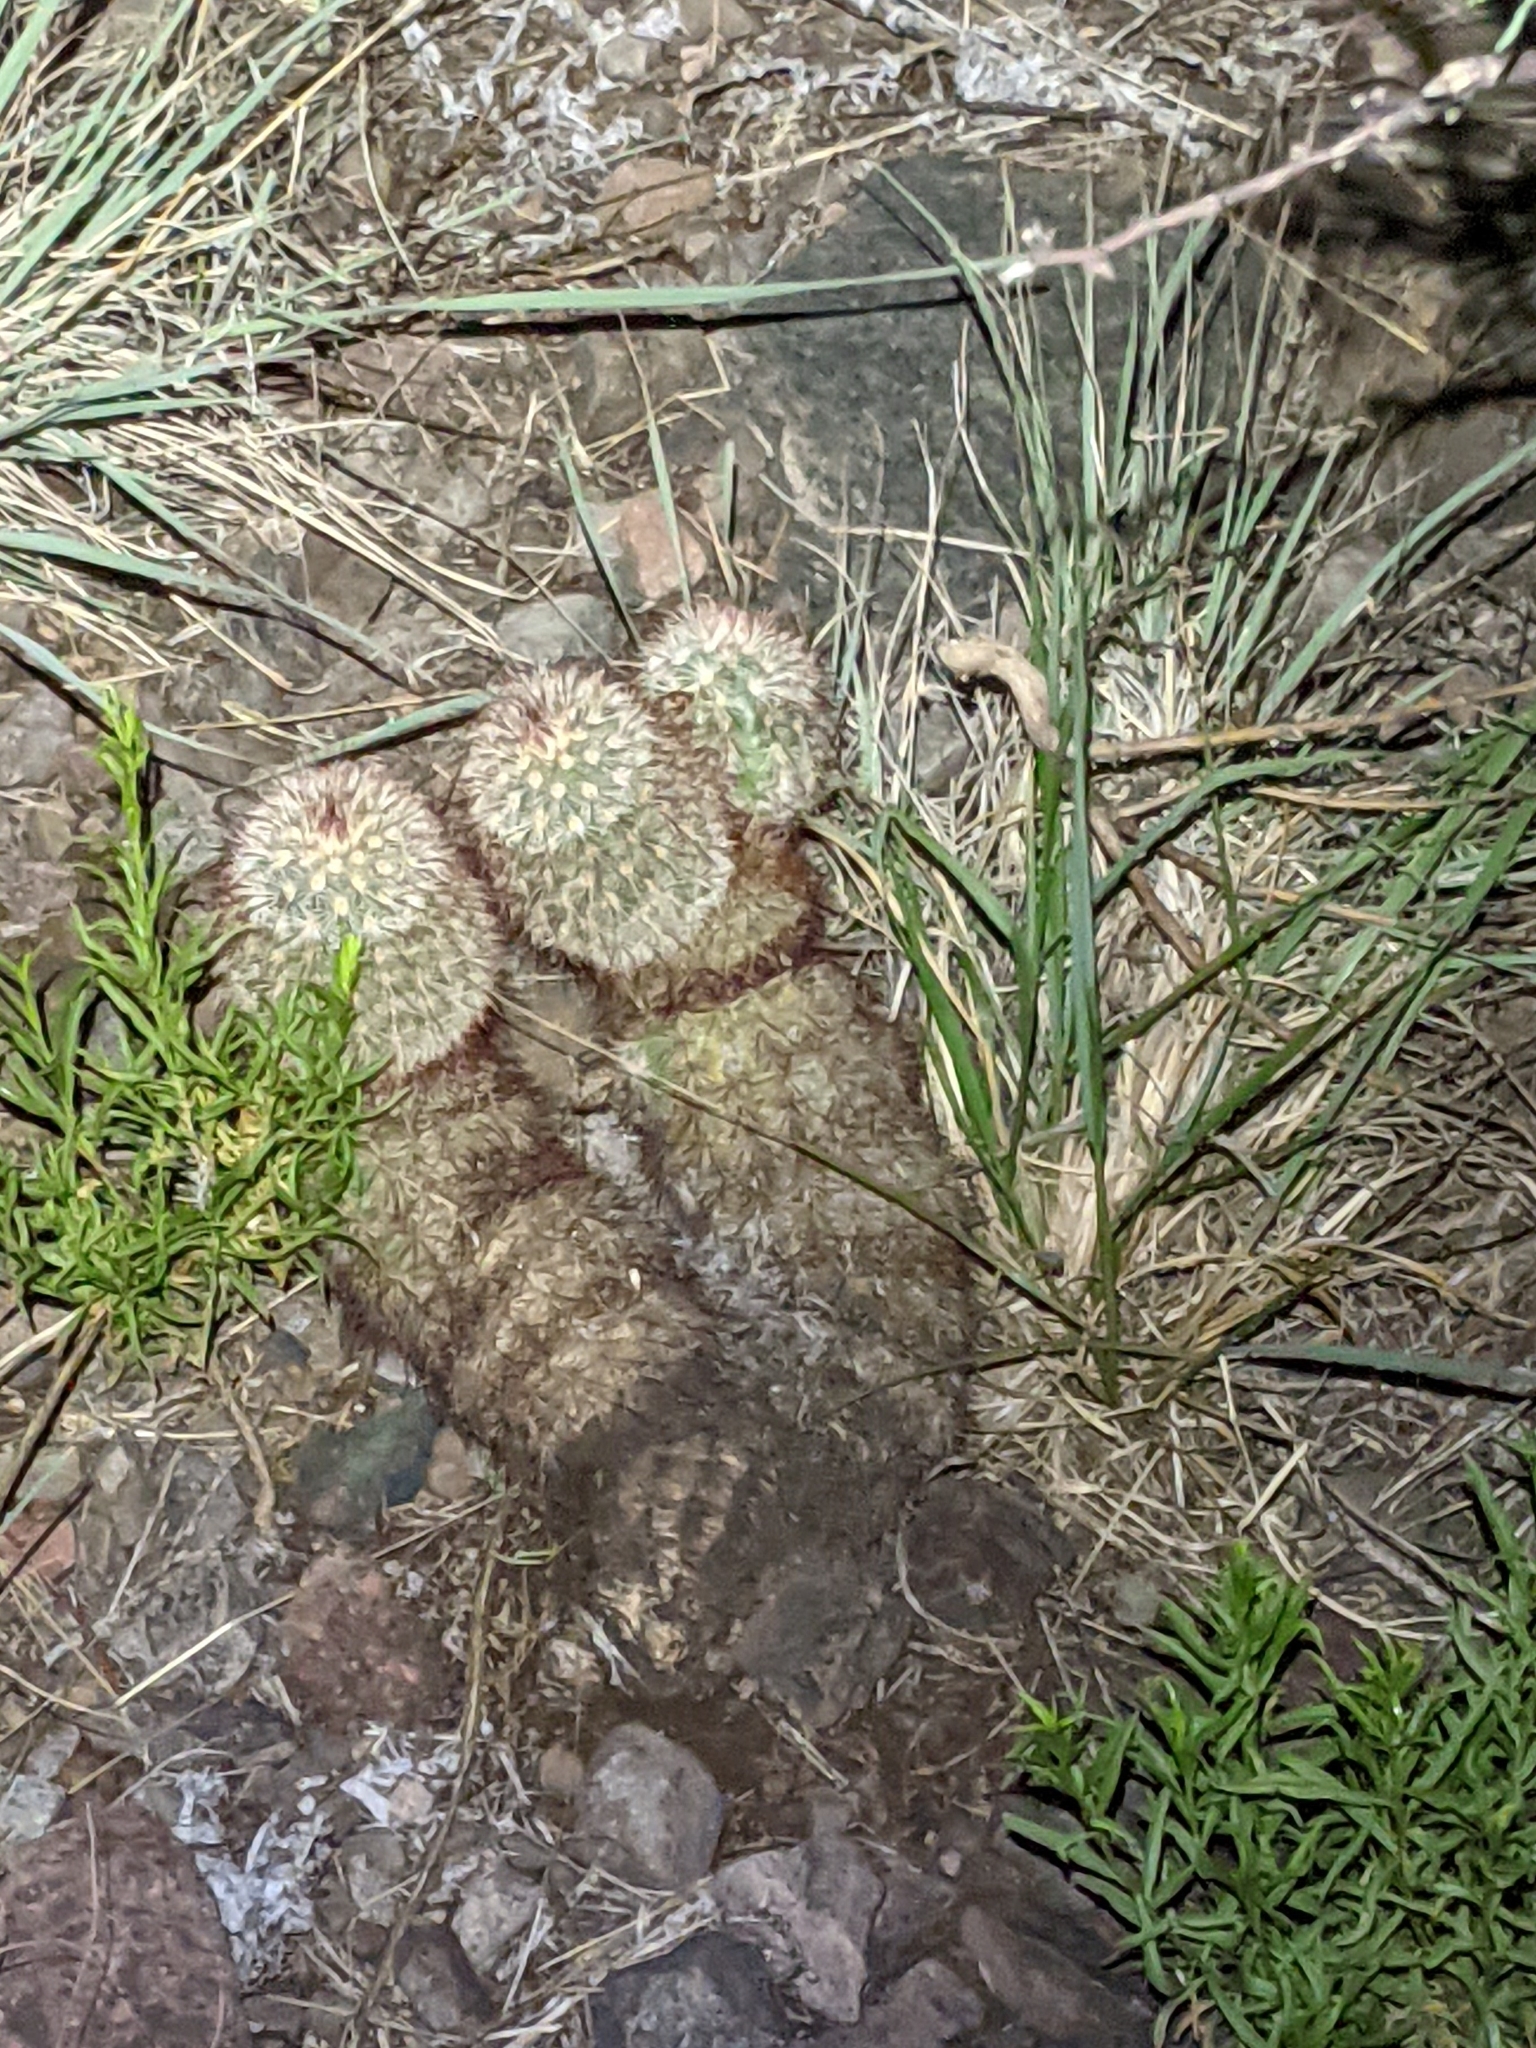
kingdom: Plantae
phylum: Tracheophyta
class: Magnoliopsida
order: Caryophyllales
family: Cactaceae
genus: Echinocereus
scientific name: Echinocereus russanthus
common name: Brownspine hedgehog cactus
